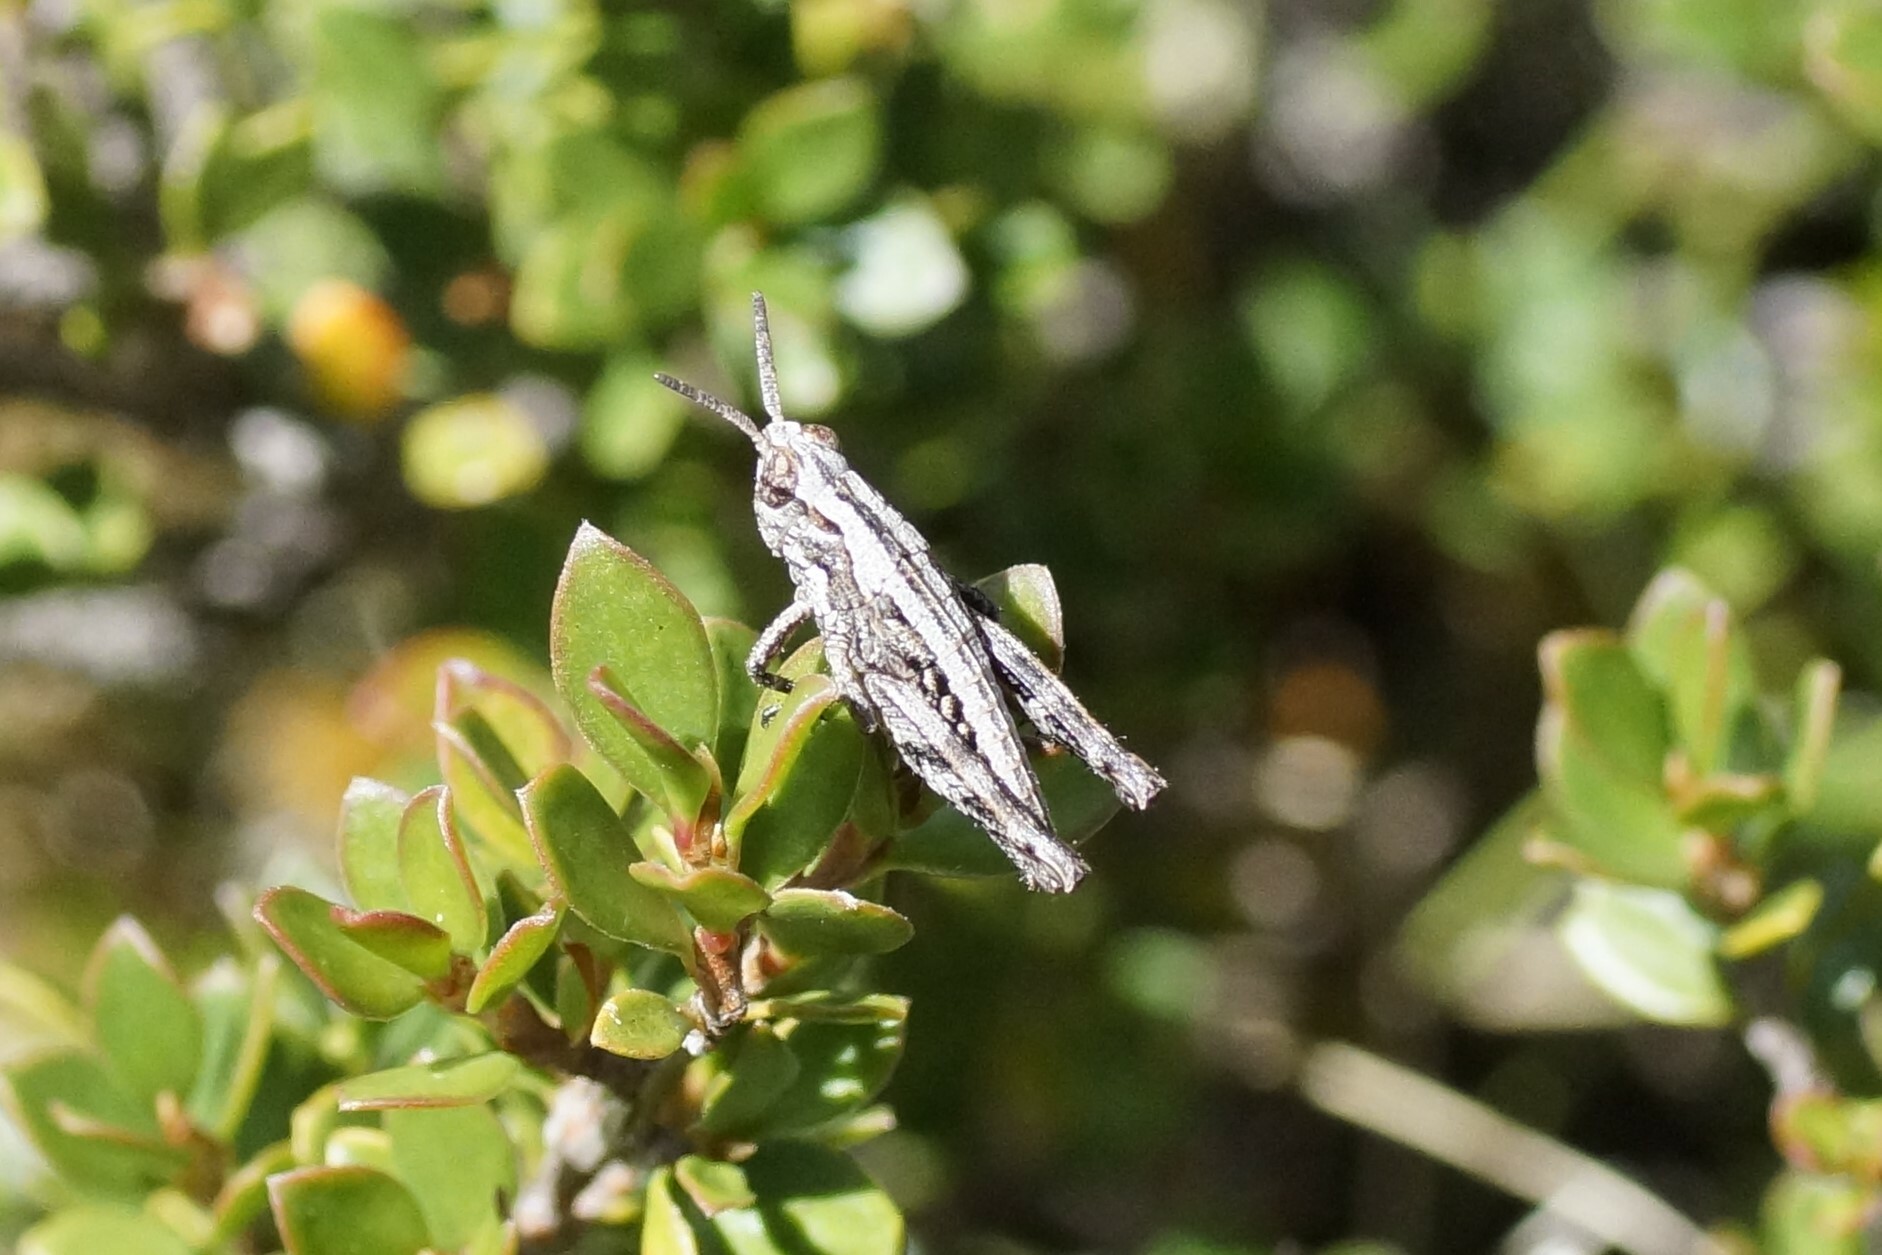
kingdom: Animalia
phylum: Arthropoda
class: Insecta
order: Orthoptera
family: Acrididae
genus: Tasmaniacris
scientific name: Tasmaniacris tasmaniensis
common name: Tasmanian grasshopper
